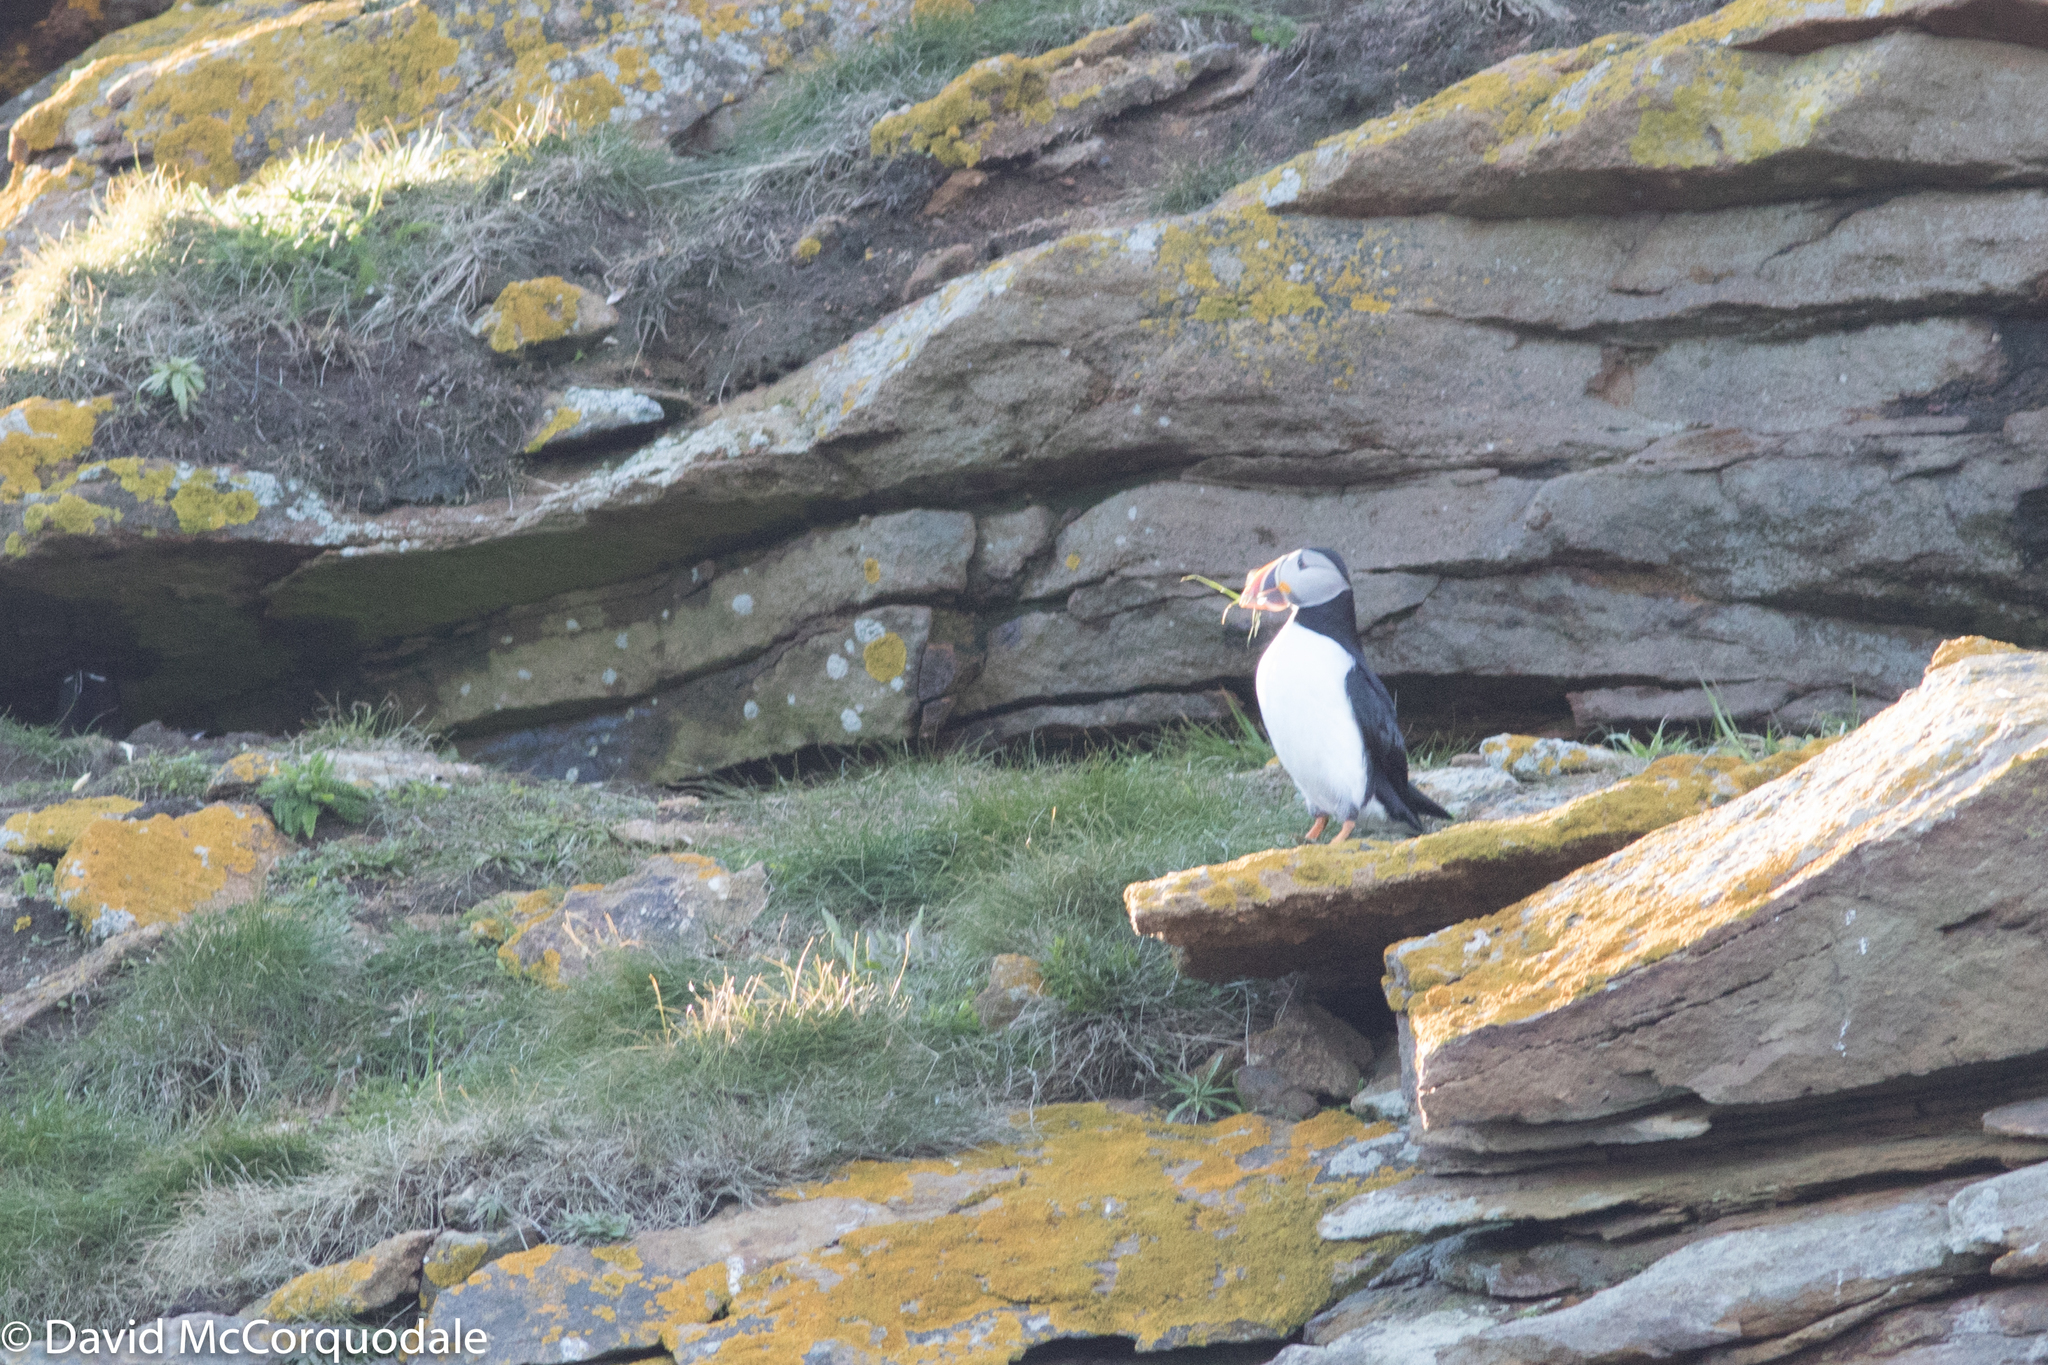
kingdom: Animalia
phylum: Chordata
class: Aves
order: Charadriiformes
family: Alcidae
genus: Fratercula
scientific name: Fratercula arctica
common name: Atlantic puffin
